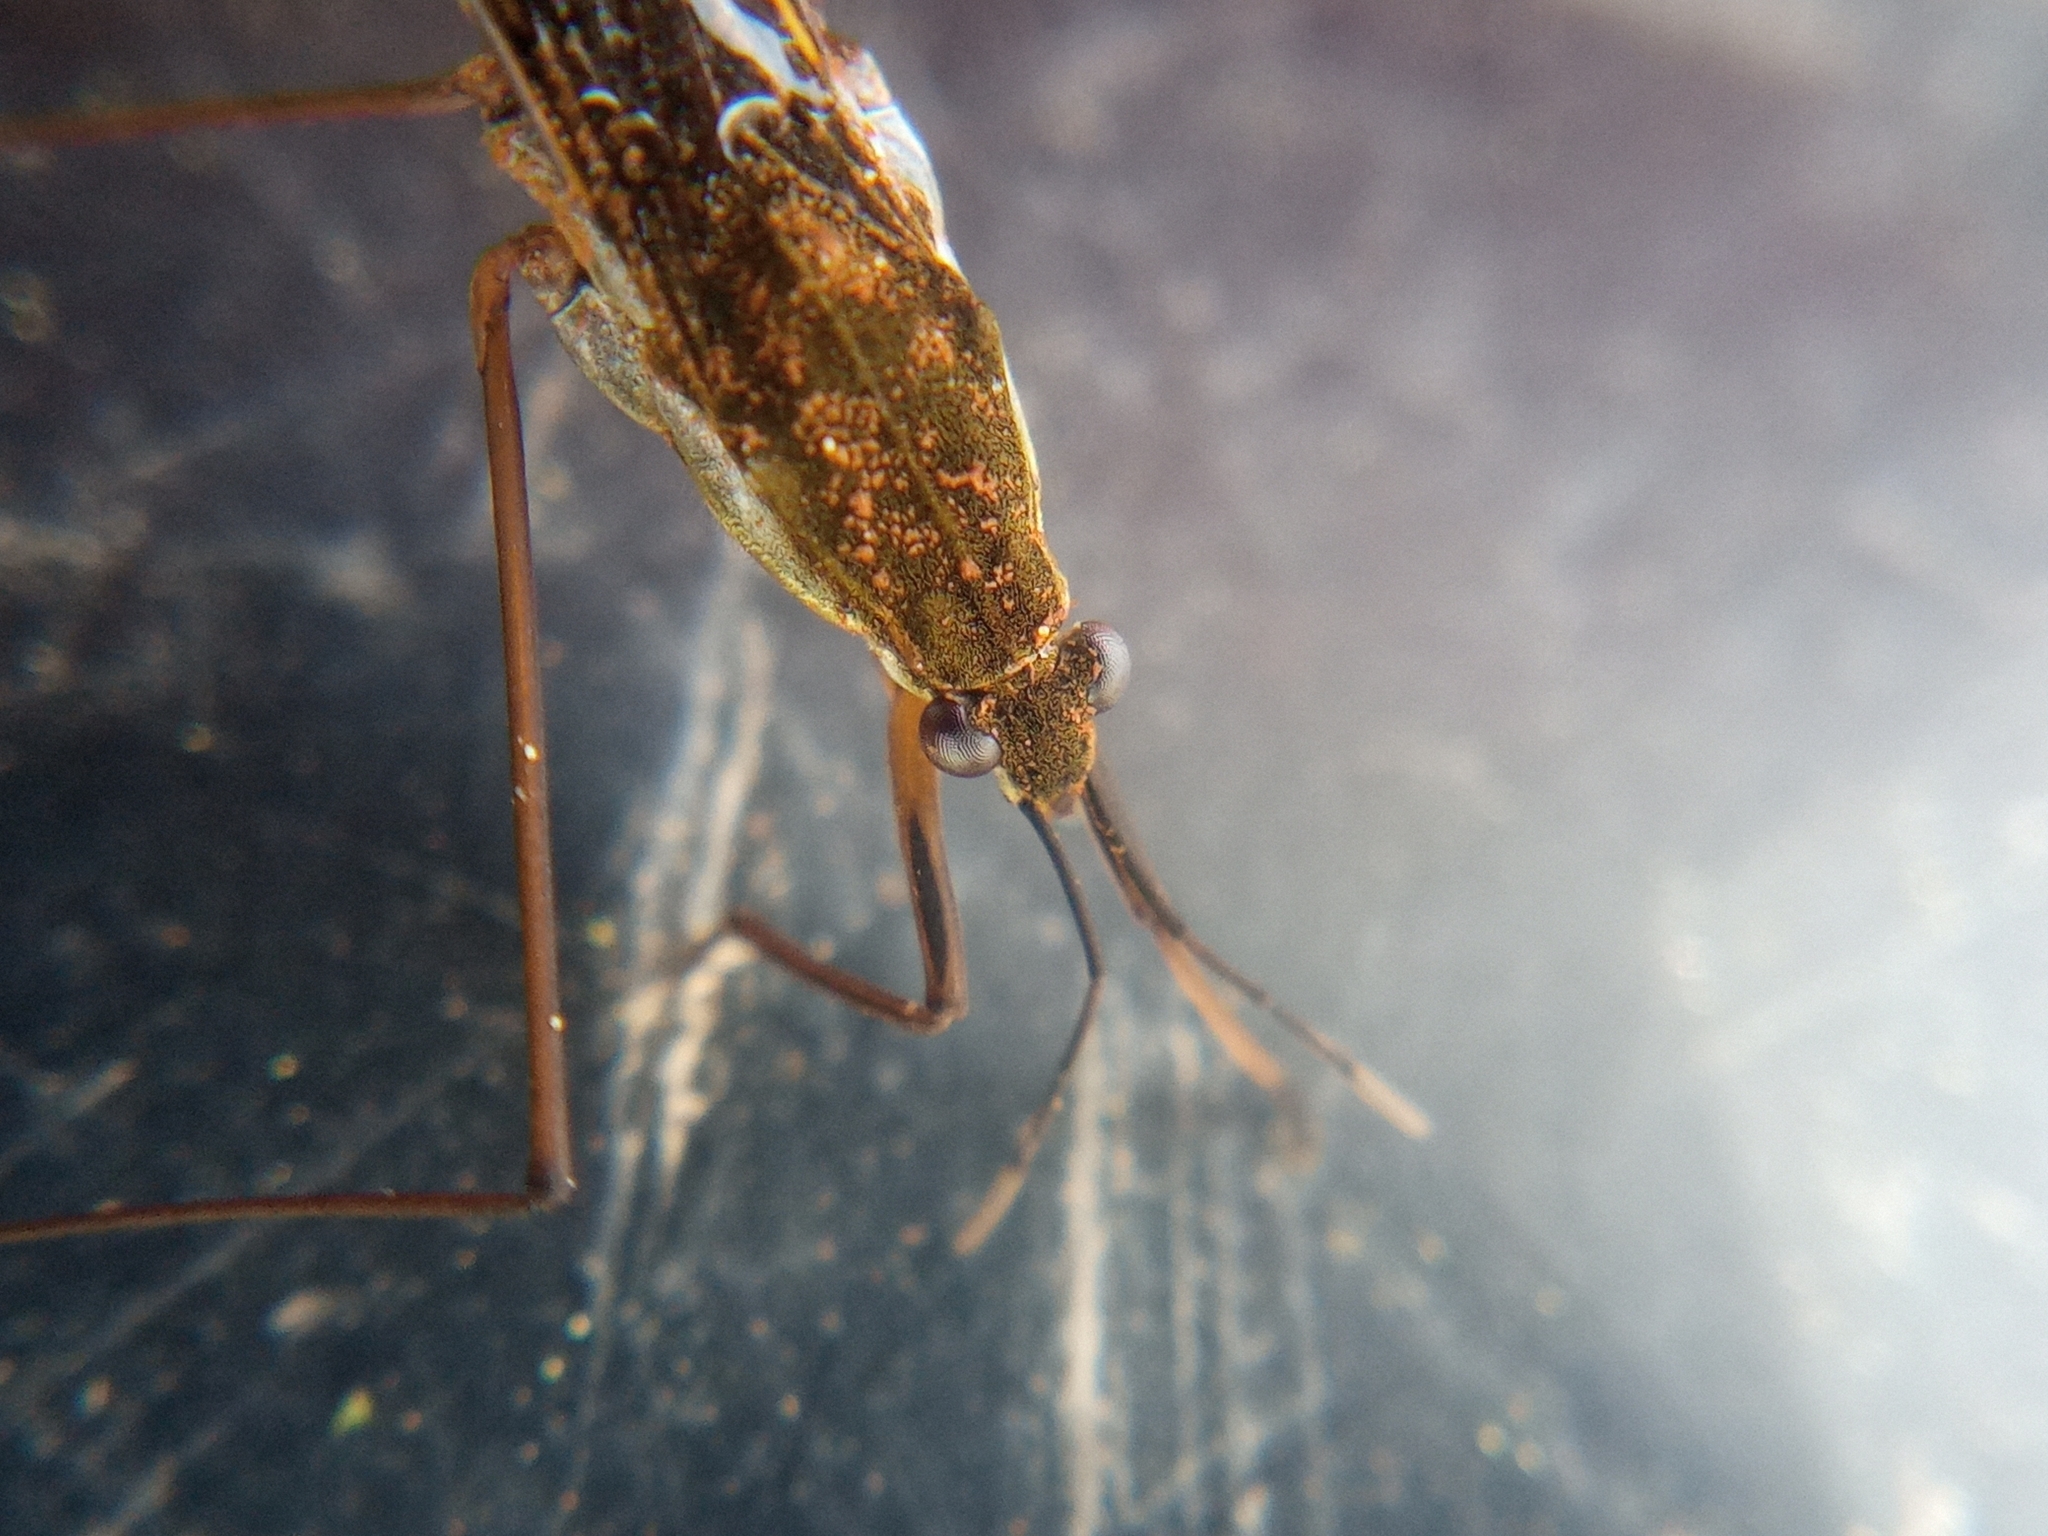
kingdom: Animalia
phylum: Arthropoda
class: Insecta
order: Hemiptera
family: Gerridae
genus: Gerris
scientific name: Gerris lacustris
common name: Common pondskater
